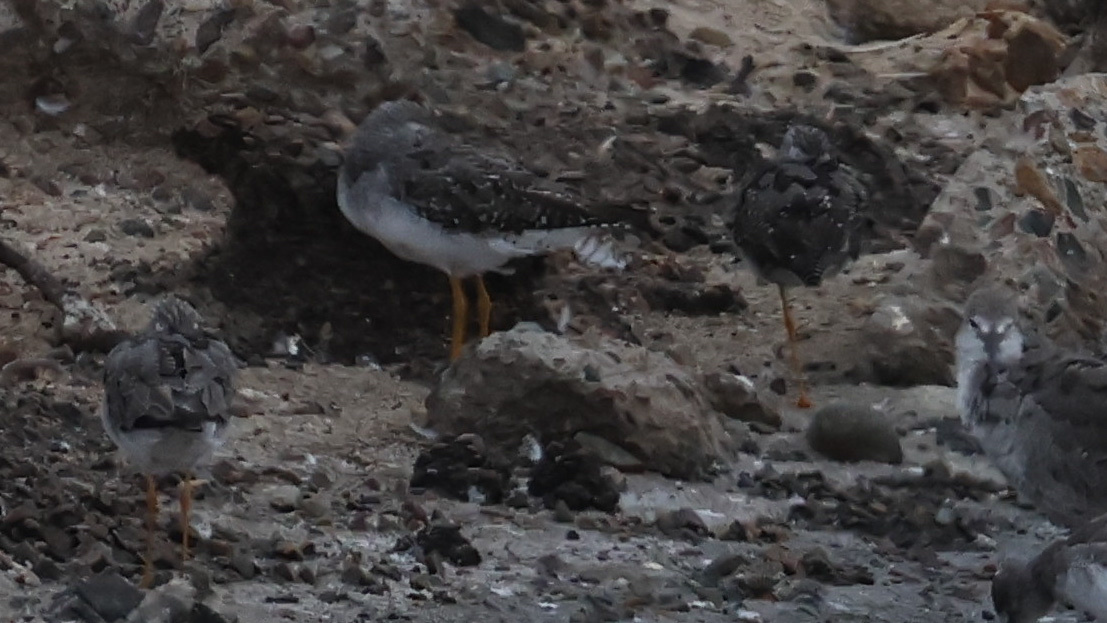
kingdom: Animalia
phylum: Chordata
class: Aves
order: Charadriiformes
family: Scolopacidae
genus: Tringa
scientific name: Tringa melanoleuca
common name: Greater yellowlegs
